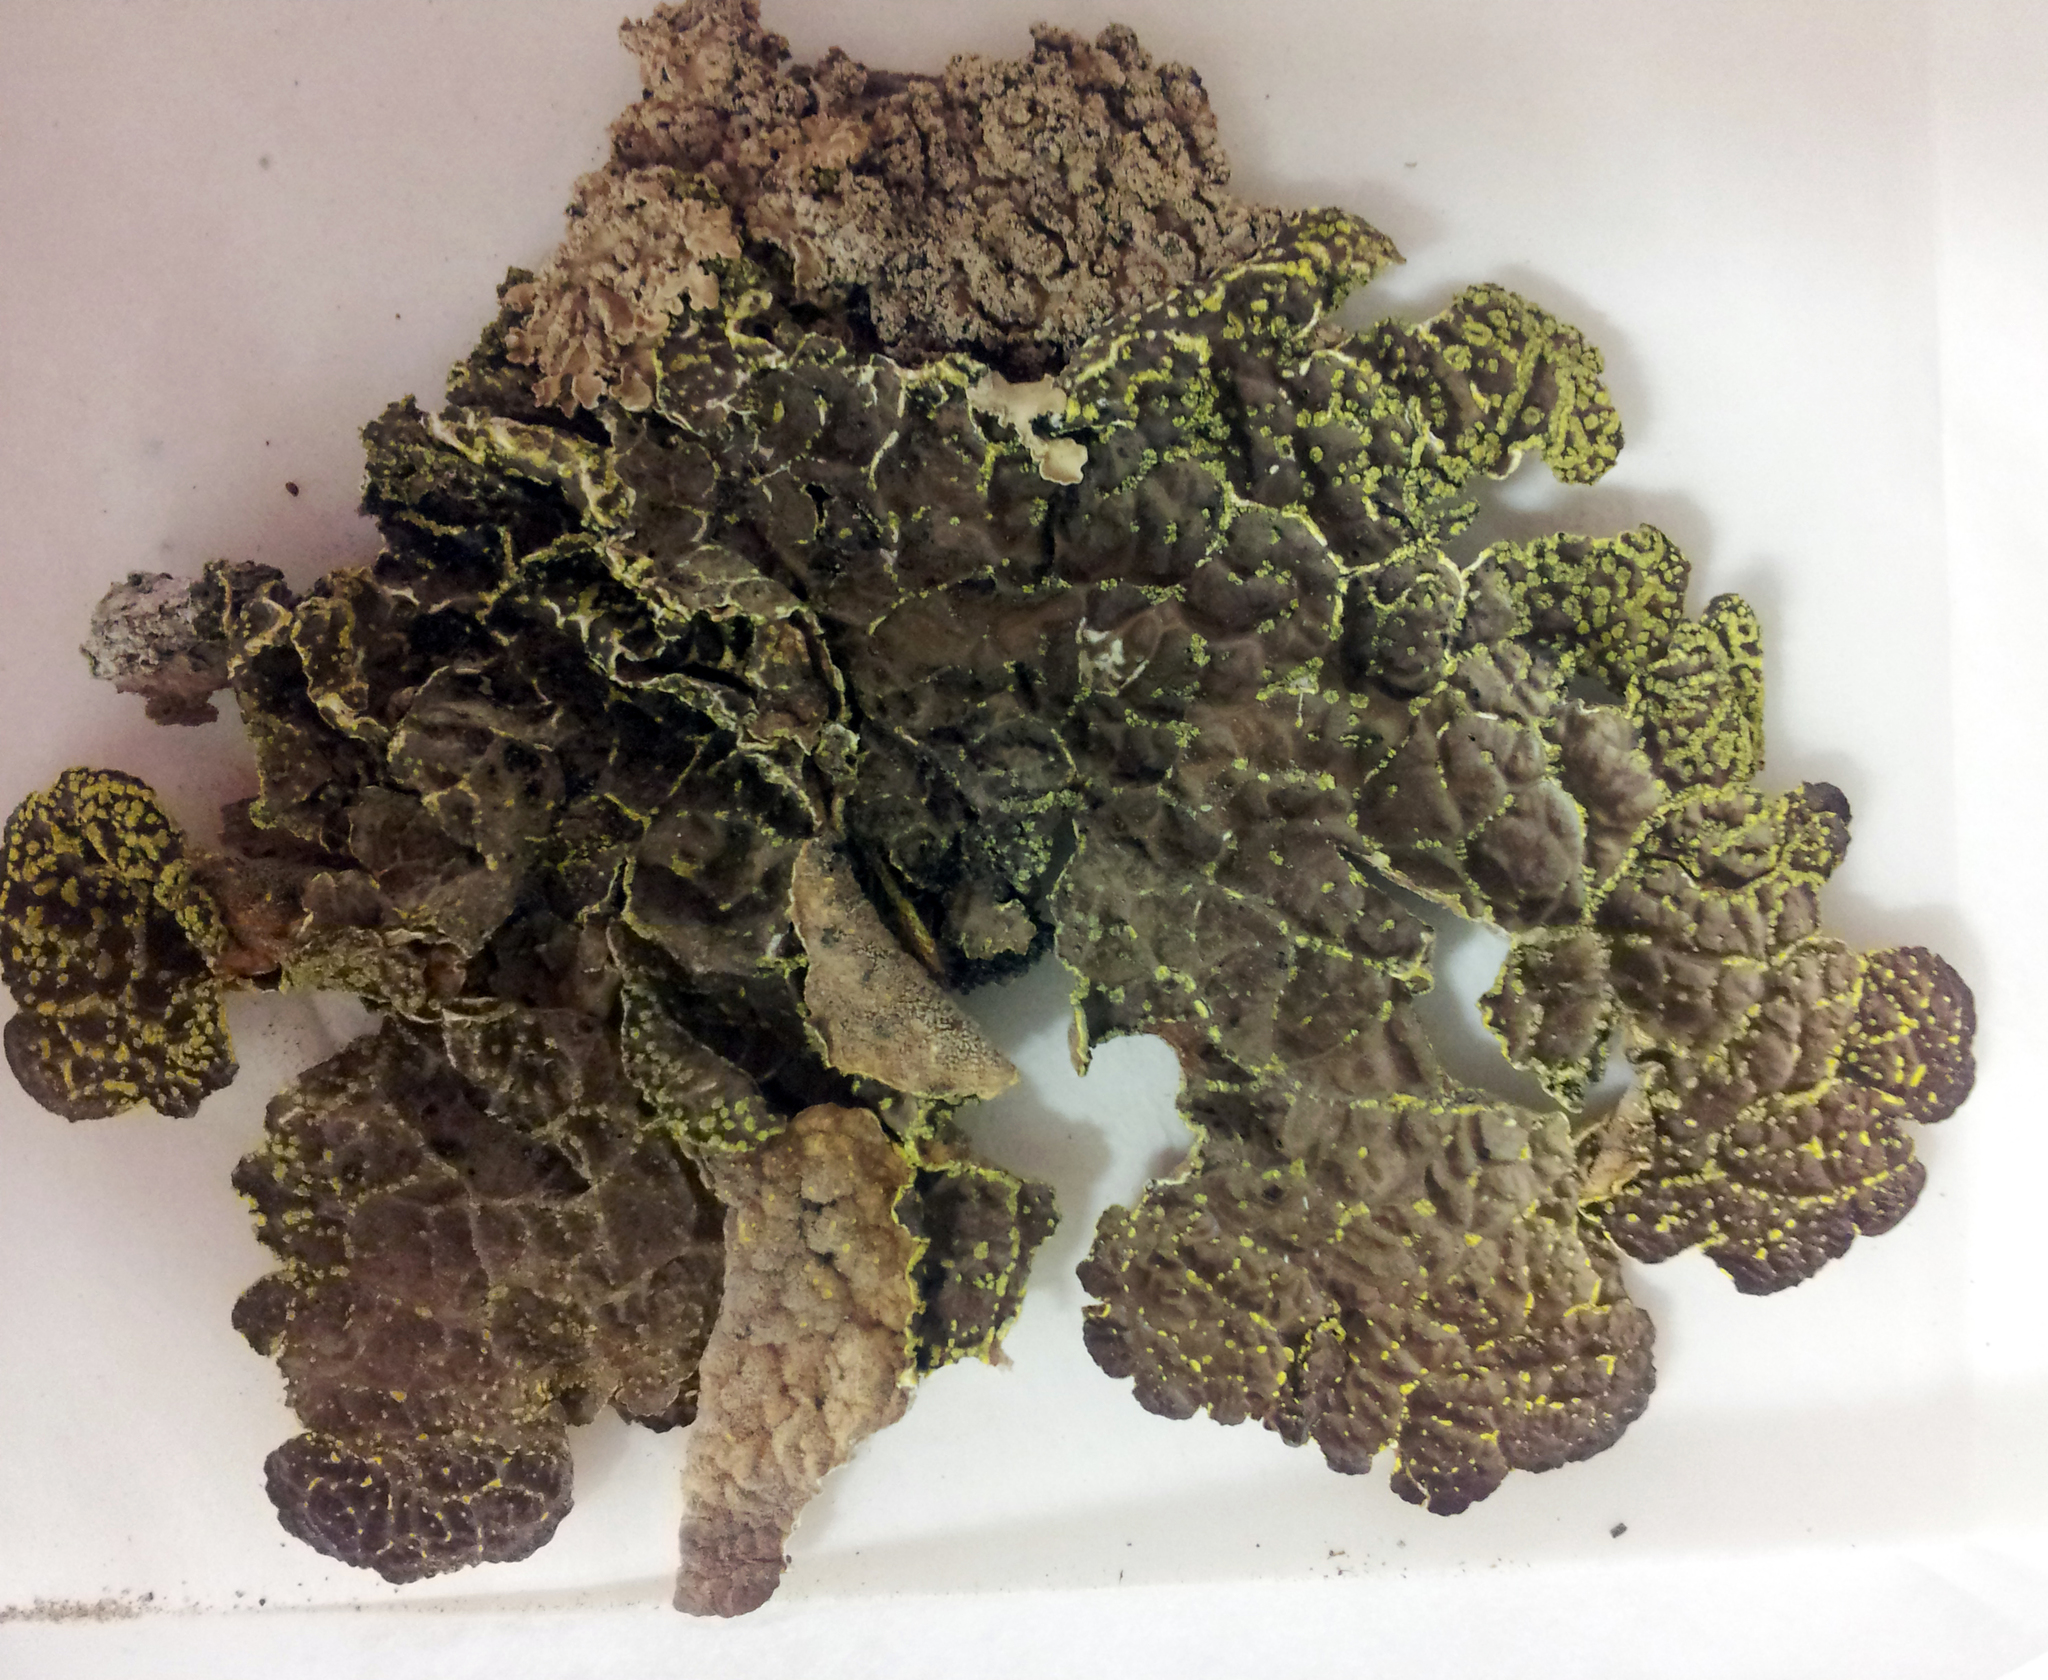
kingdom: Fungi
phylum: Ascomycota
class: Lecanoromycetes
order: Peltigerales
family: Lobariaceae
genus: Pseudocyphellaria
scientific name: Pseudocyphellaria crocata
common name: Golden specklebelly
